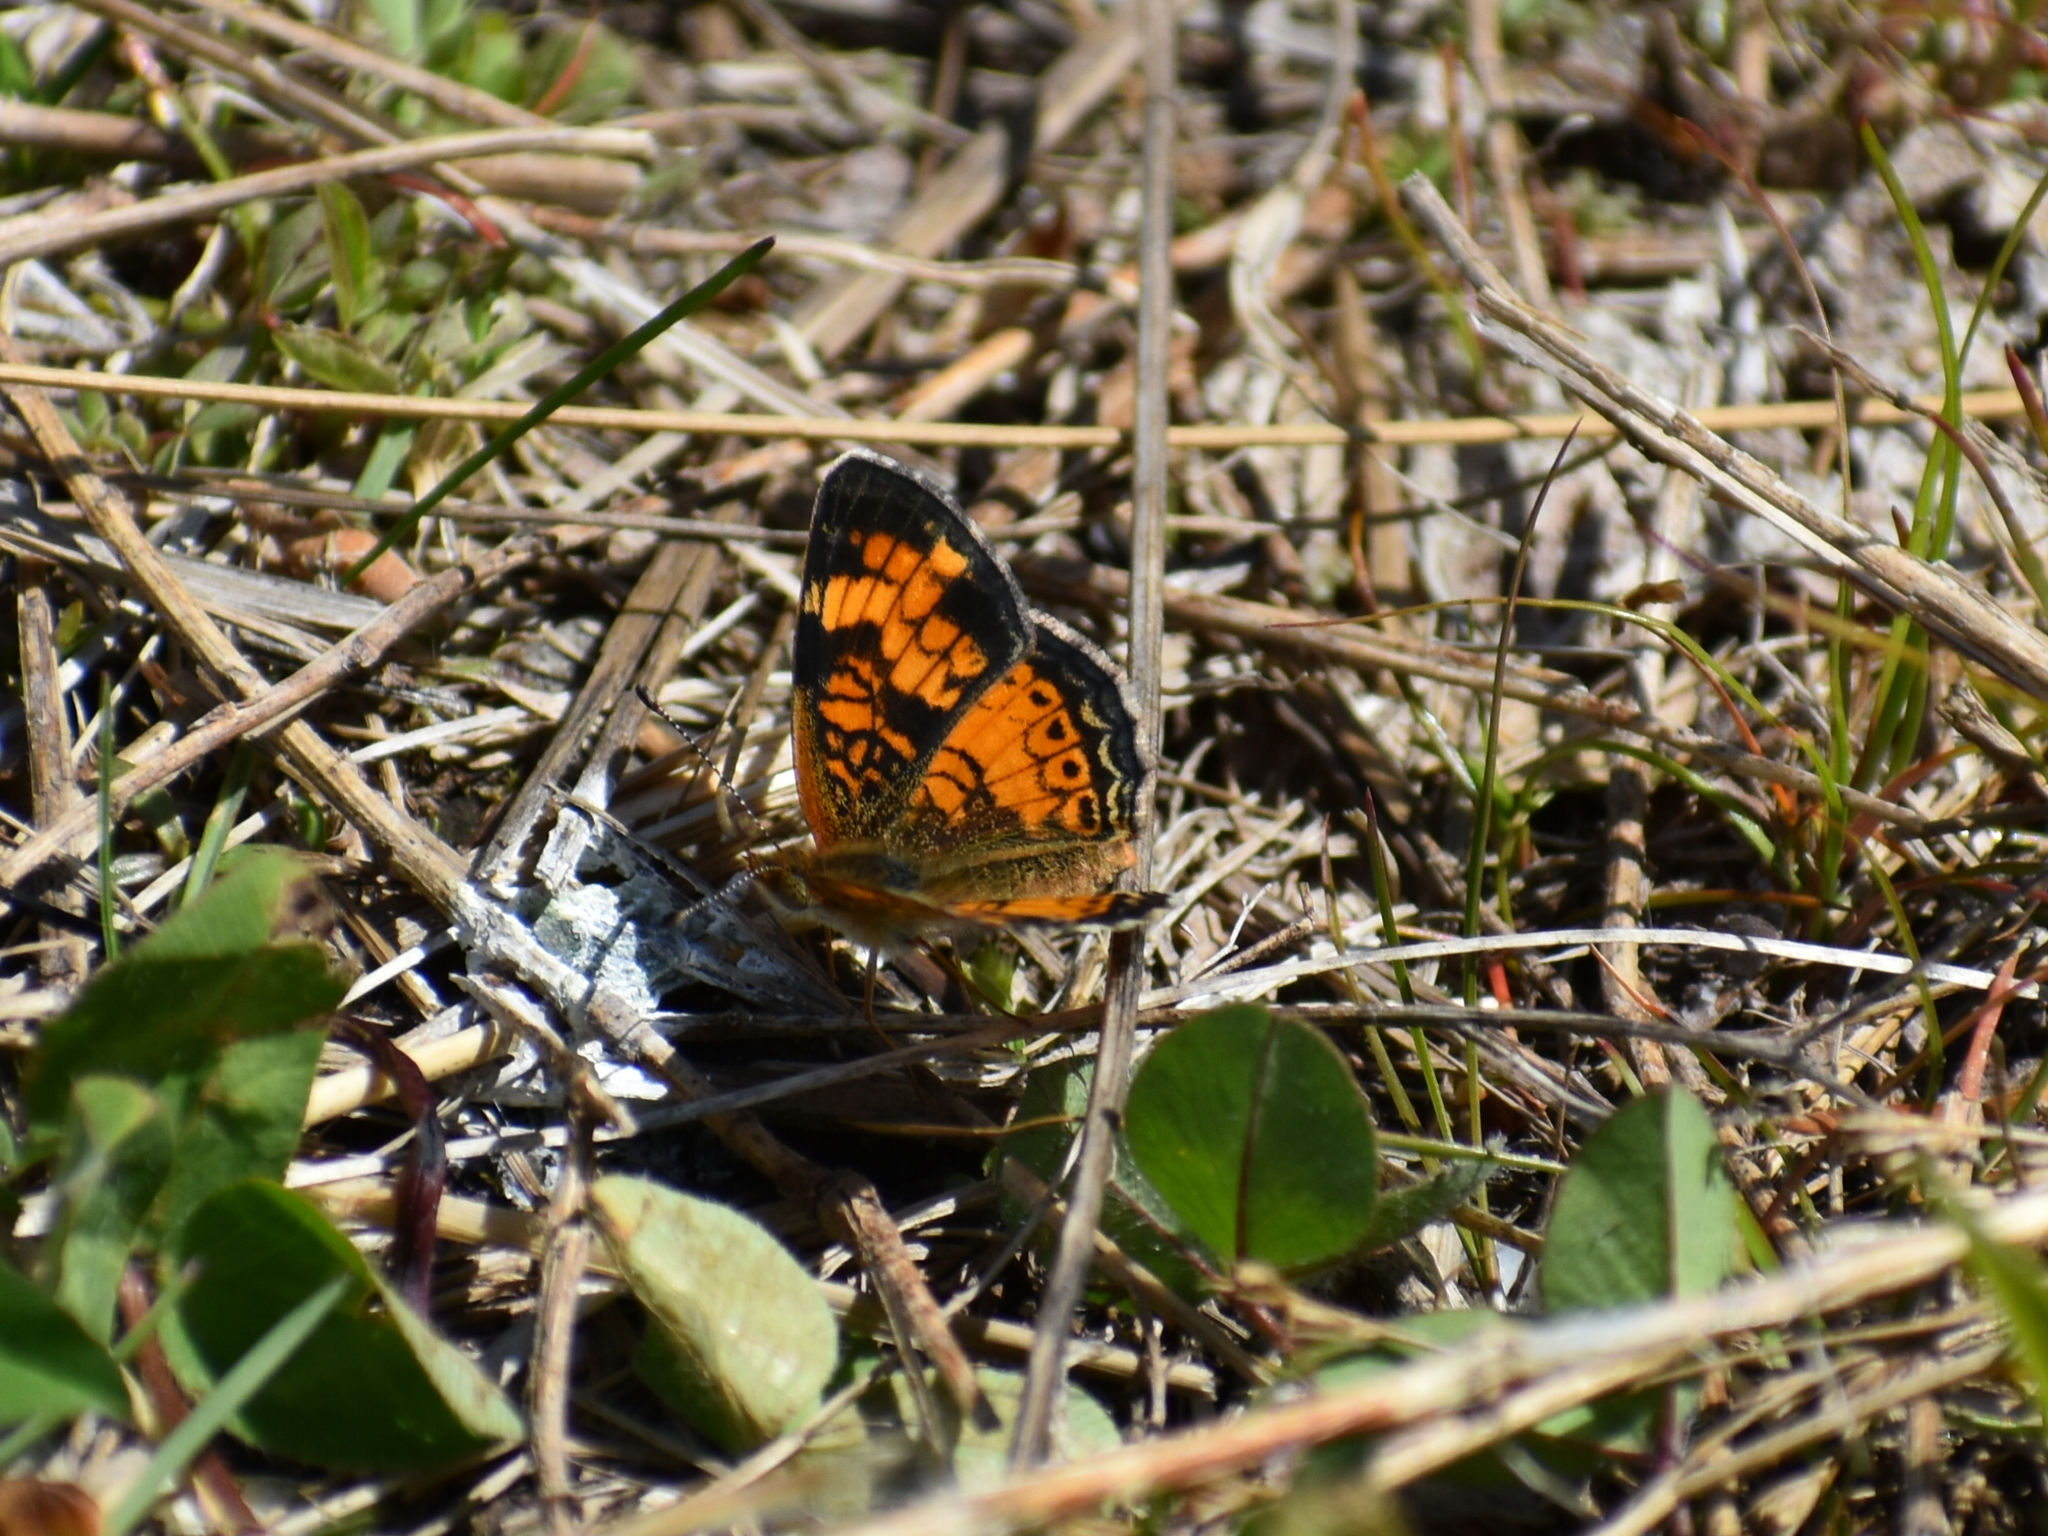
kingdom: Animalia
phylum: Arthropoda
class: Insecta
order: Lepidoptera
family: Nymphalidae
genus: Phyciodes
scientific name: Phyciodes tharos
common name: Pearl crescent
